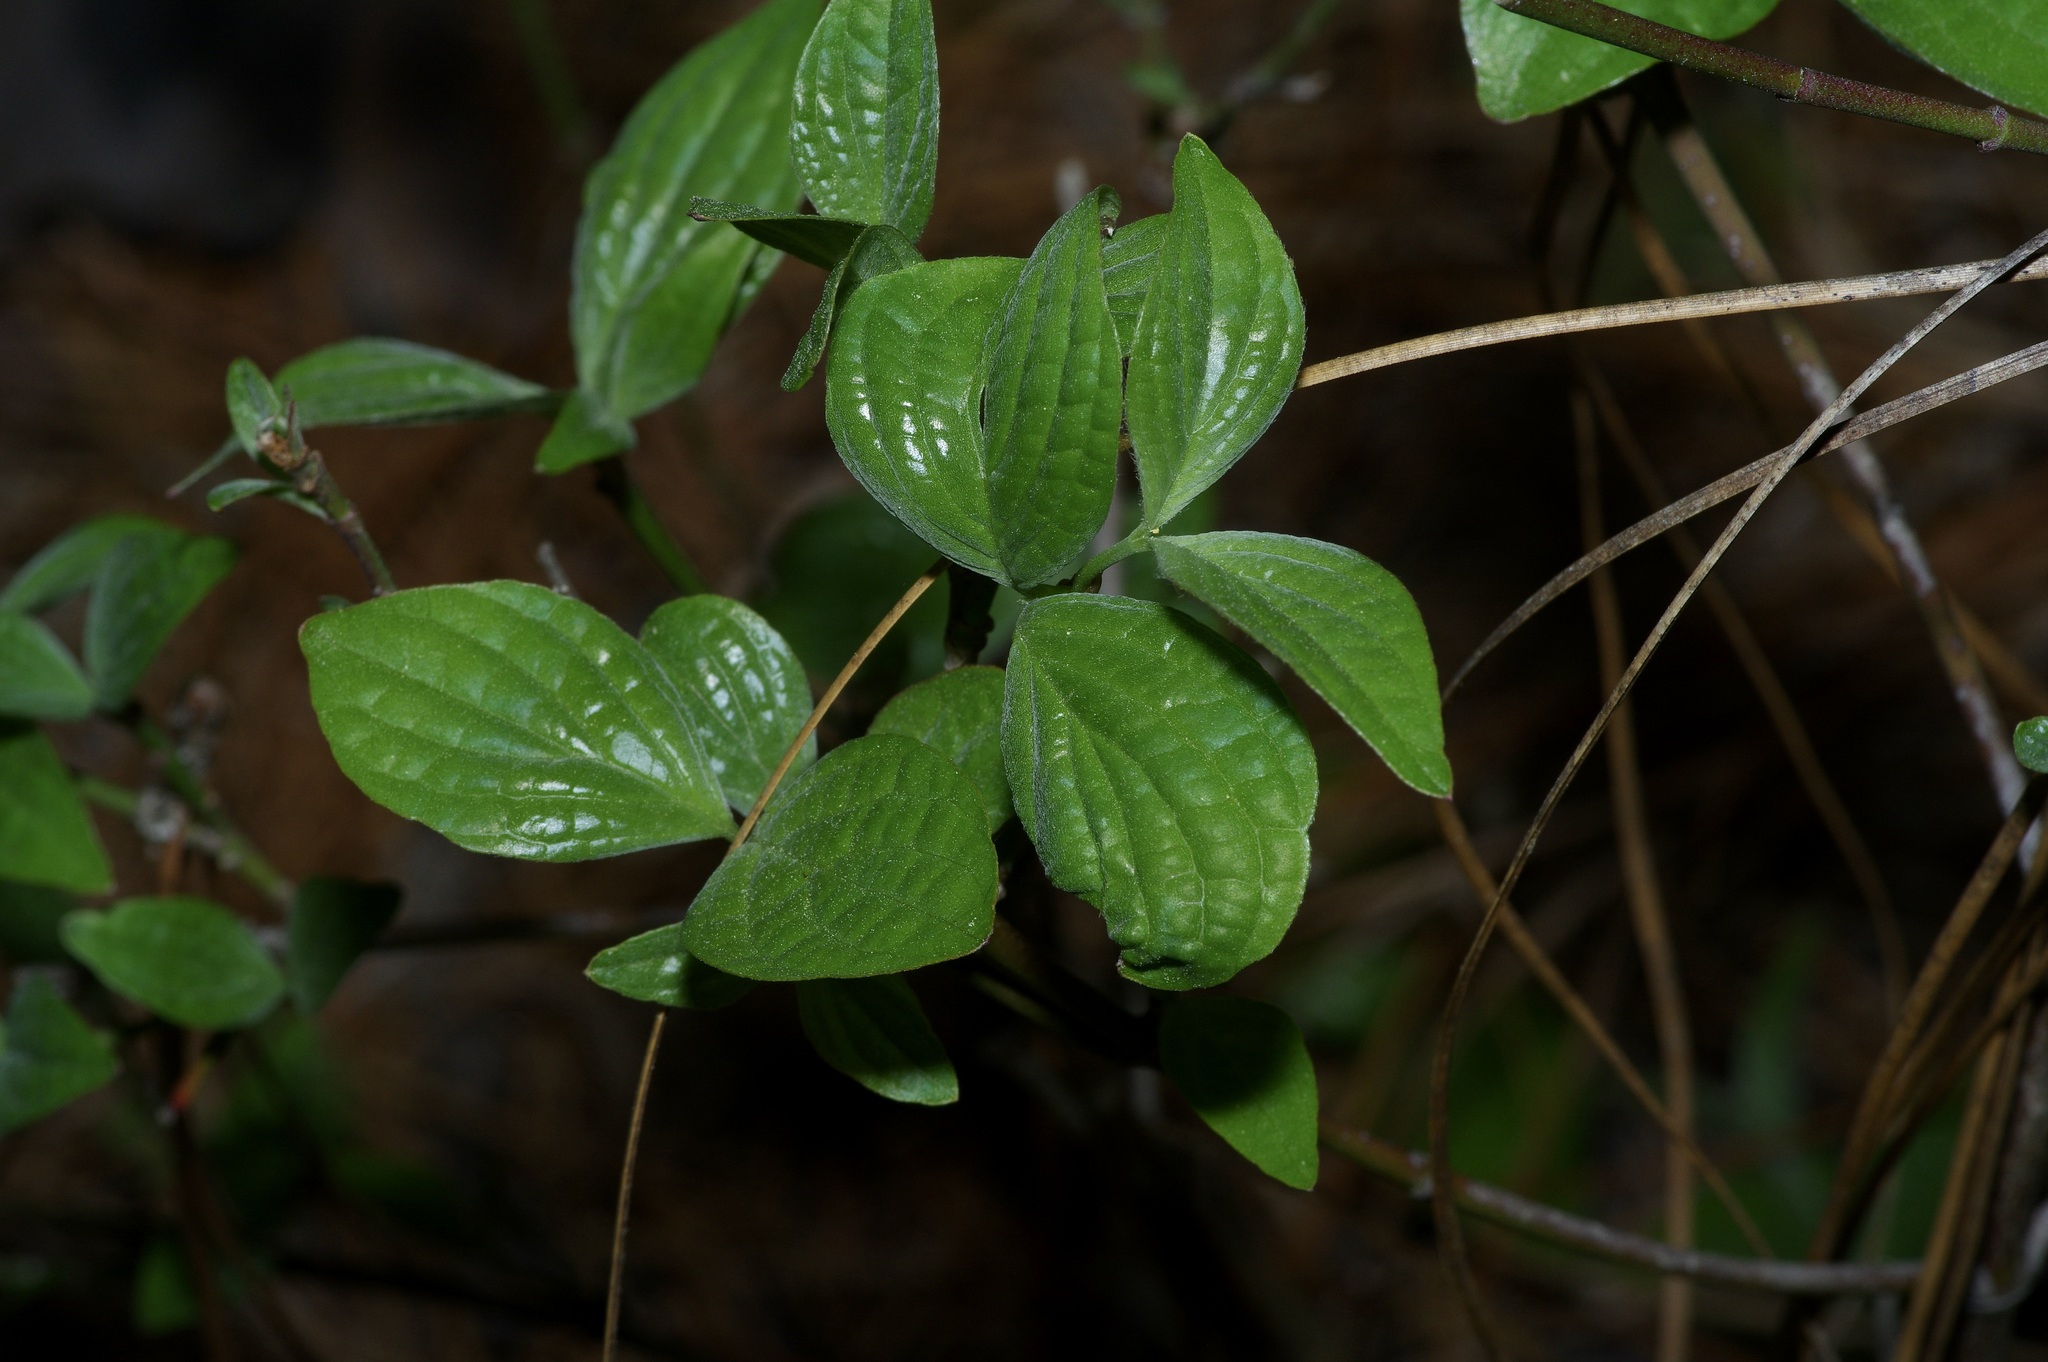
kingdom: Plantae
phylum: Tracheophyta
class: Magnoliopsida
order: Cornales
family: Cornaceae
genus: Cornus
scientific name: Cornus florida
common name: Flowering dogwood
